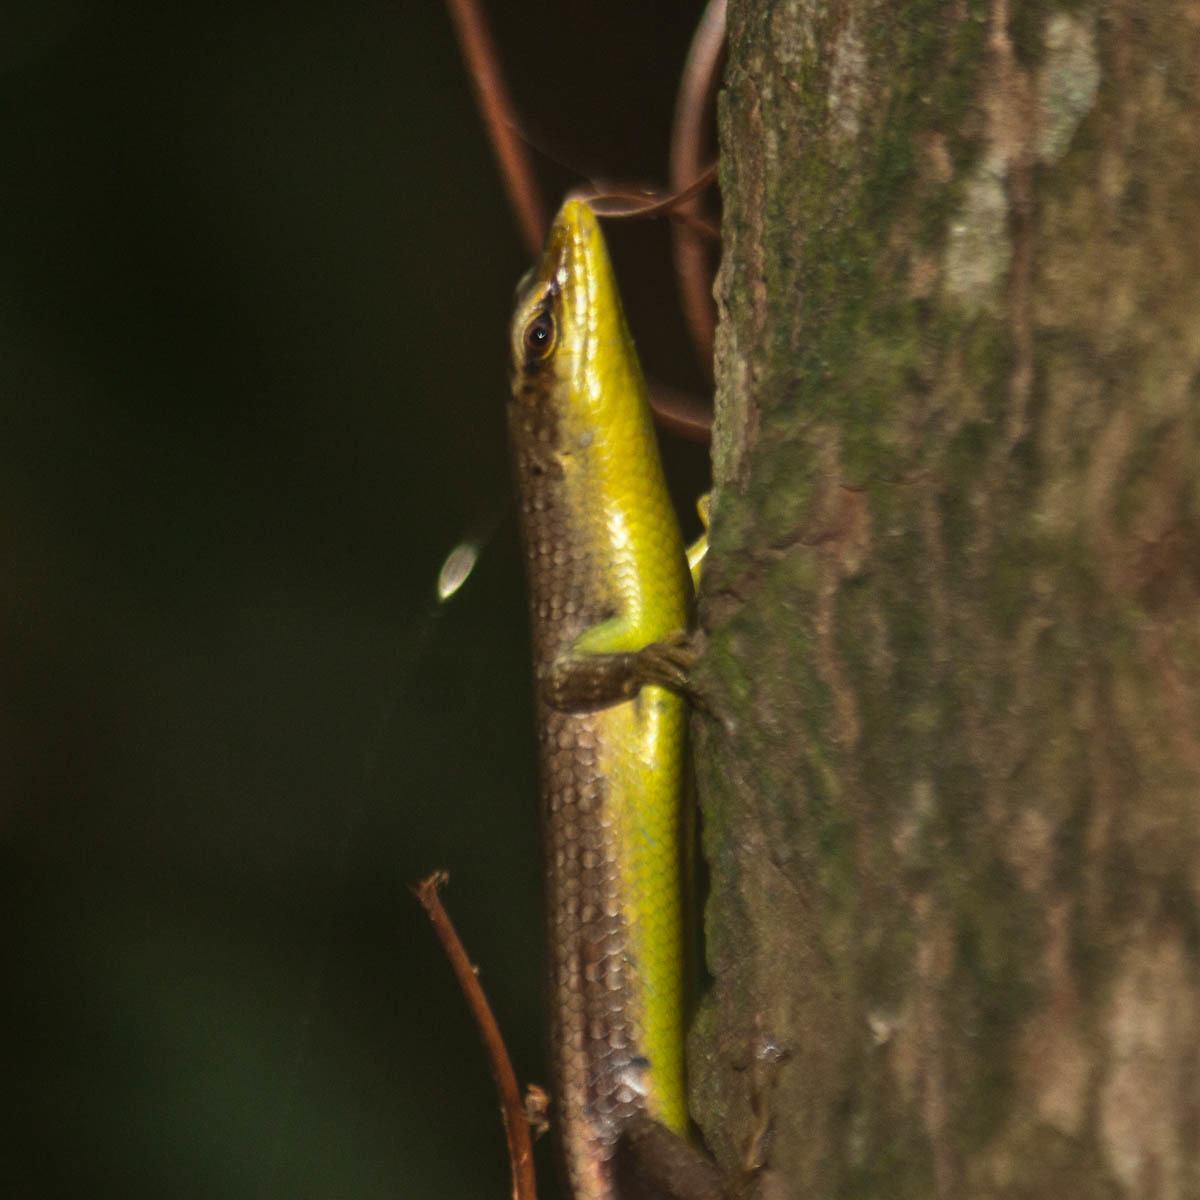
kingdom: Animalia
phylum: Chordata
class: Squamata
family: Scincidae
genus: Dasia
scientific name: Dasia olivacea
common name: Olive dasia
